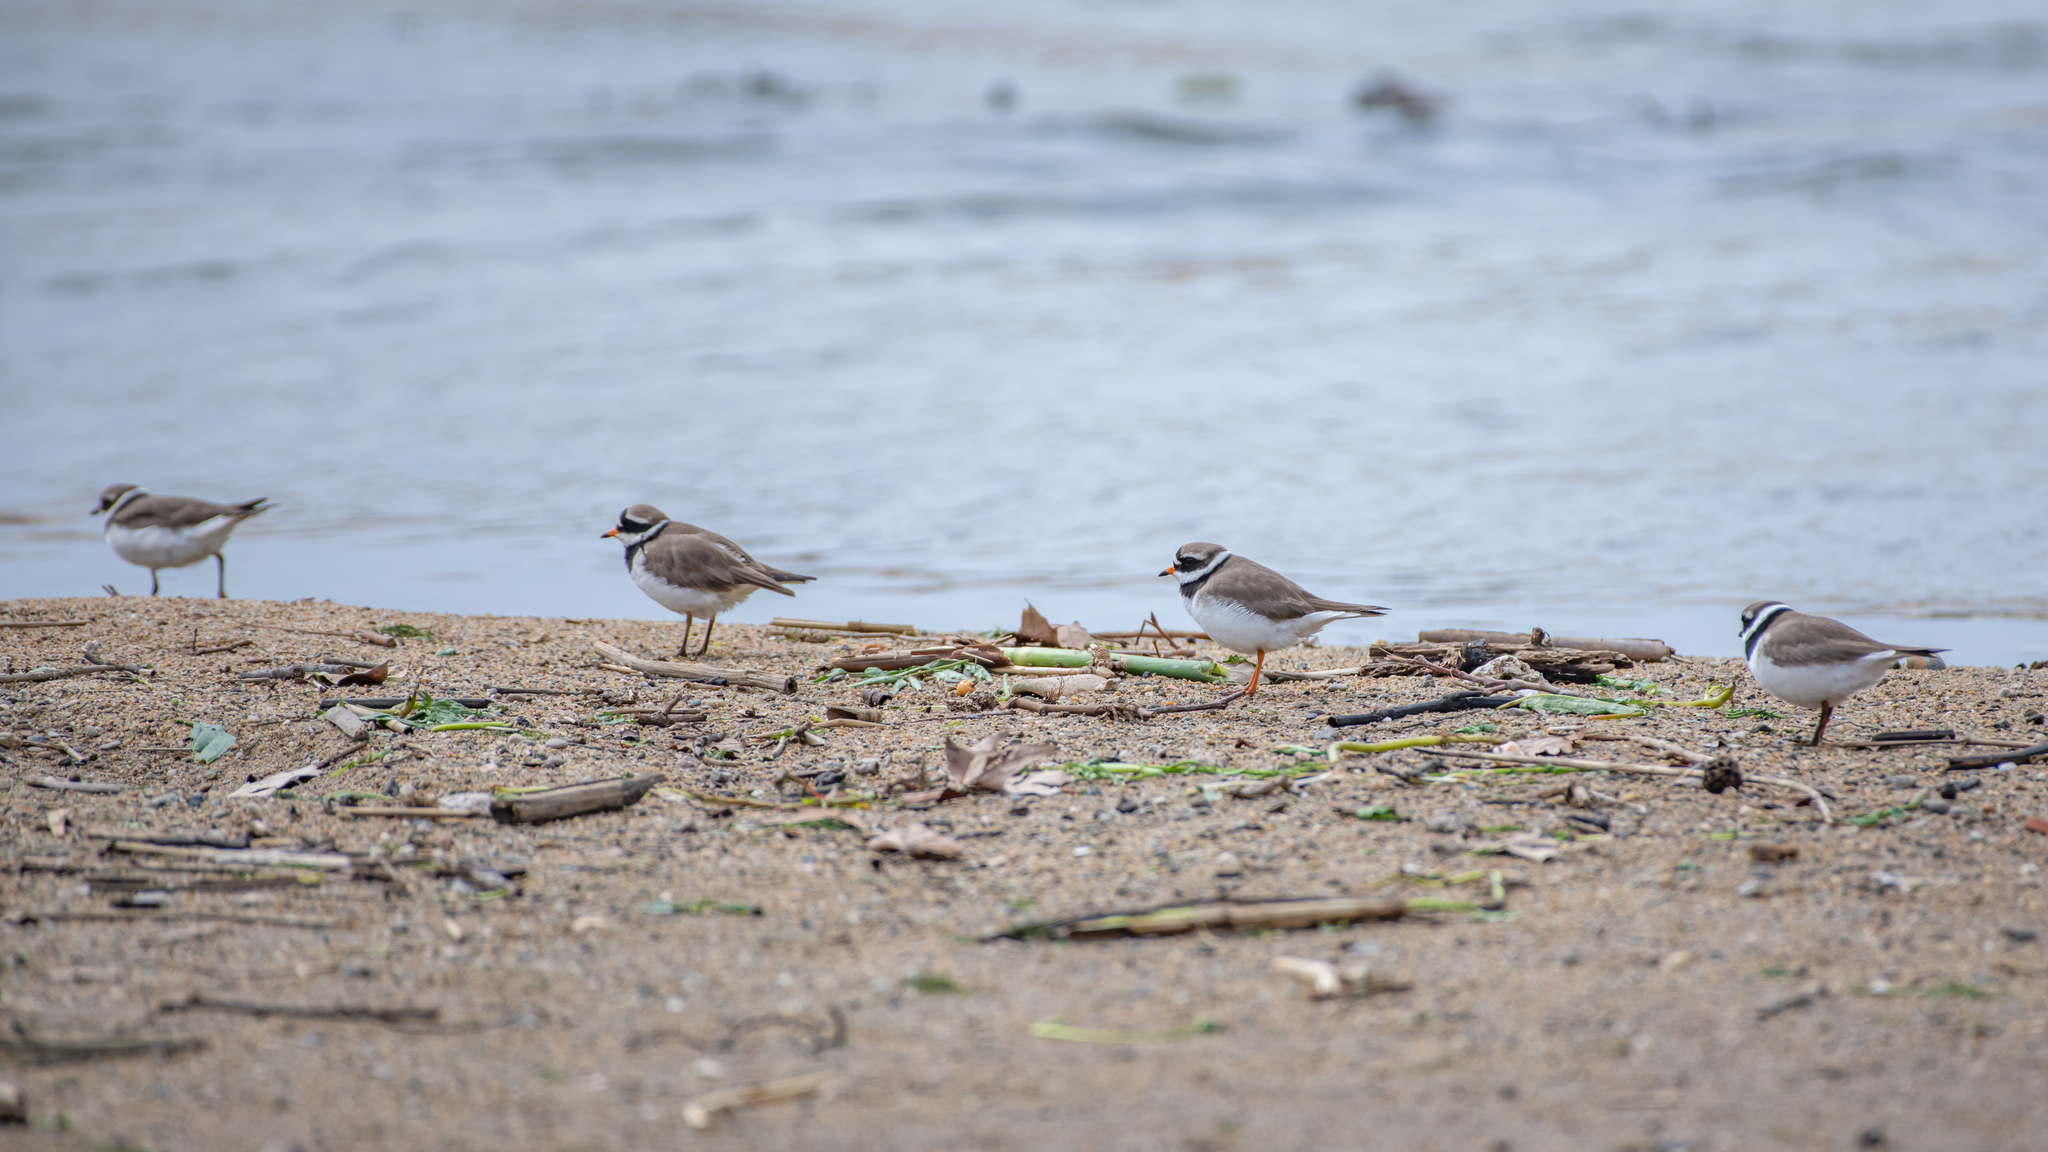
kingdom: Animalia
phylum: Chordata
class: Aves
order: Charadriiformes
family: Charadriidae
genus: Charadrius
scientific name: Charadrius hiaticula
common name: Common ringed plover
